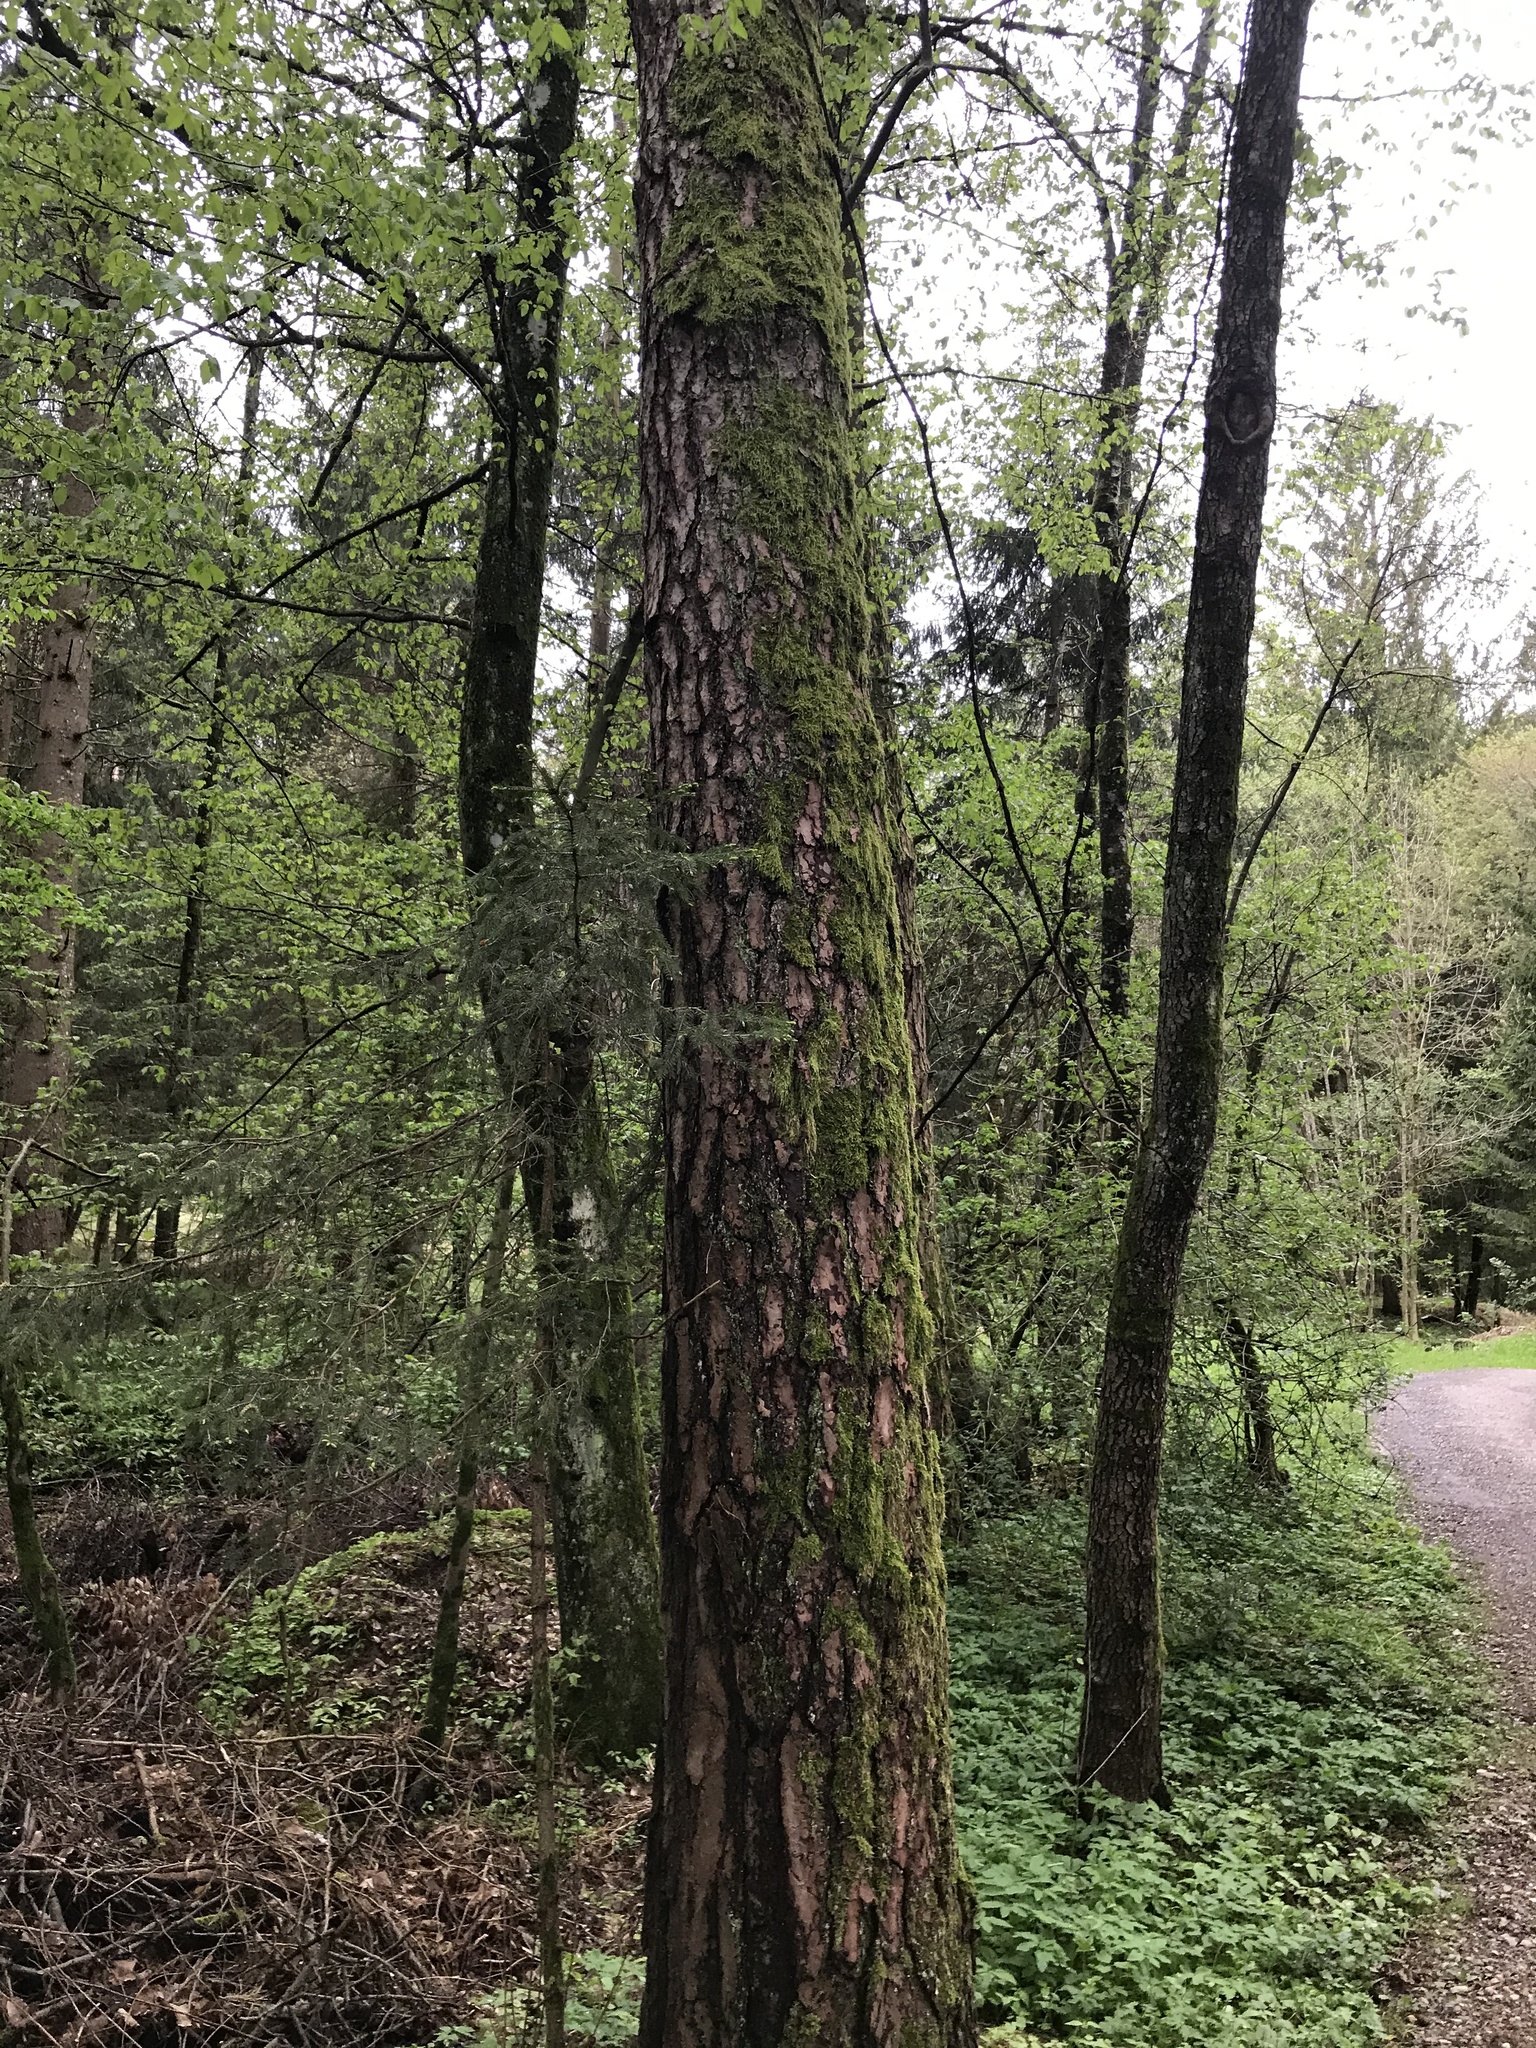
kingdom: Plantae
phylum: Tracheophyta
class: Pinopsida
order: Pinales
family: Pinaceae
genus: Pinus
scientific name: Pinus sylvestris
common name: Scots pine
